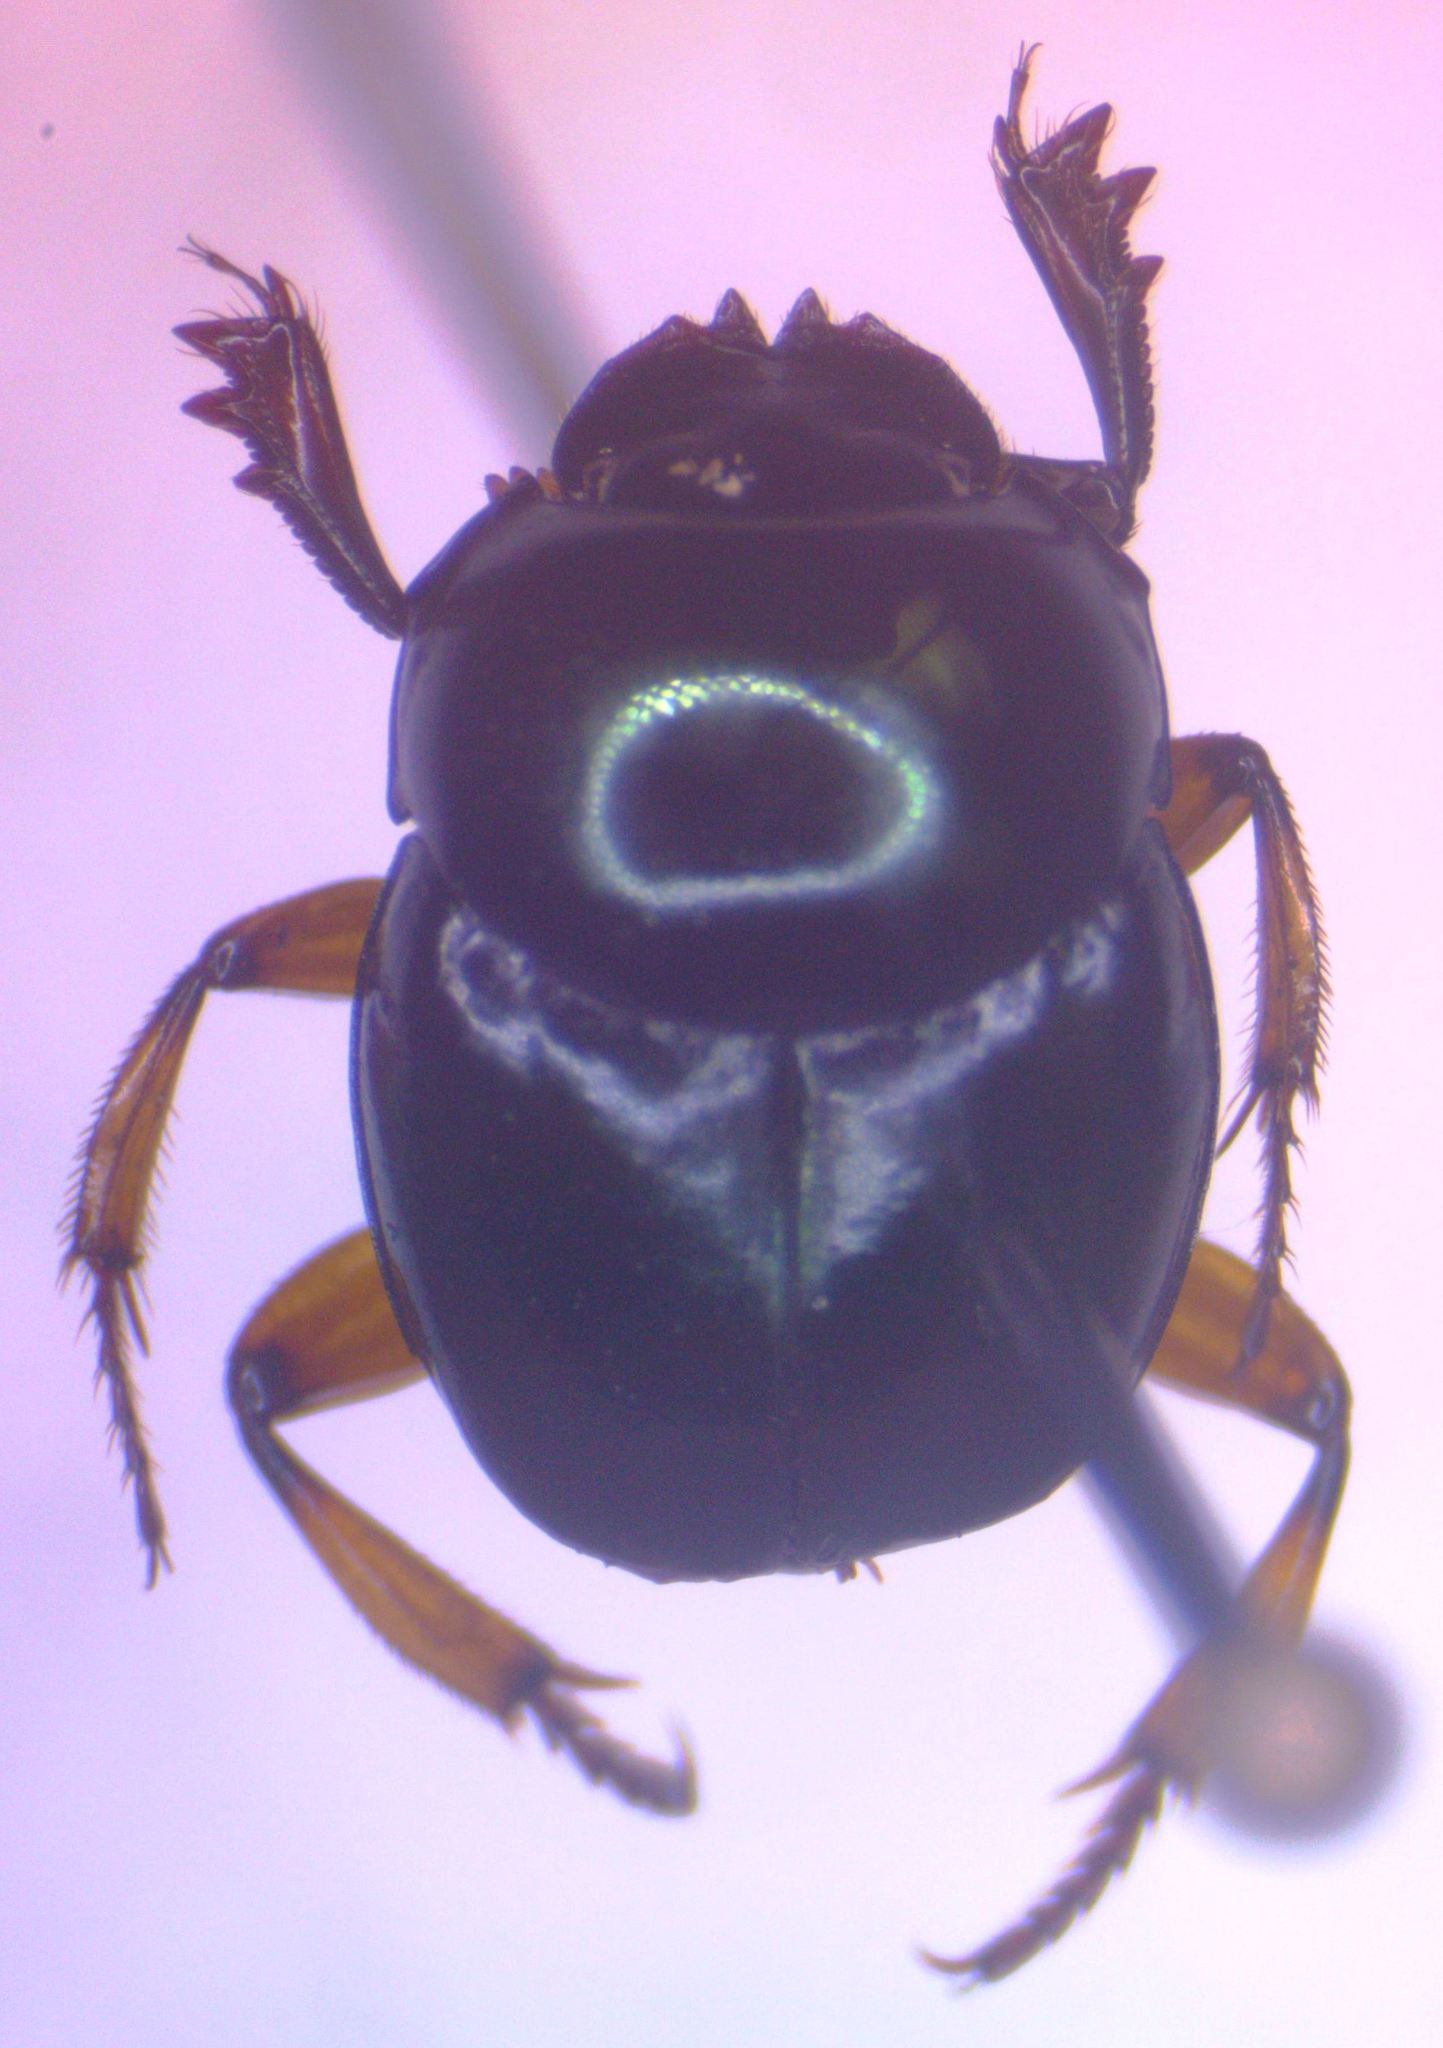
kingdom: Animalia
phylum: Arthropoda
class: Insecta
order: Coleoptera
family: Scarabaeidae
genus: Canthon
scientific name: Canthon femoralis
